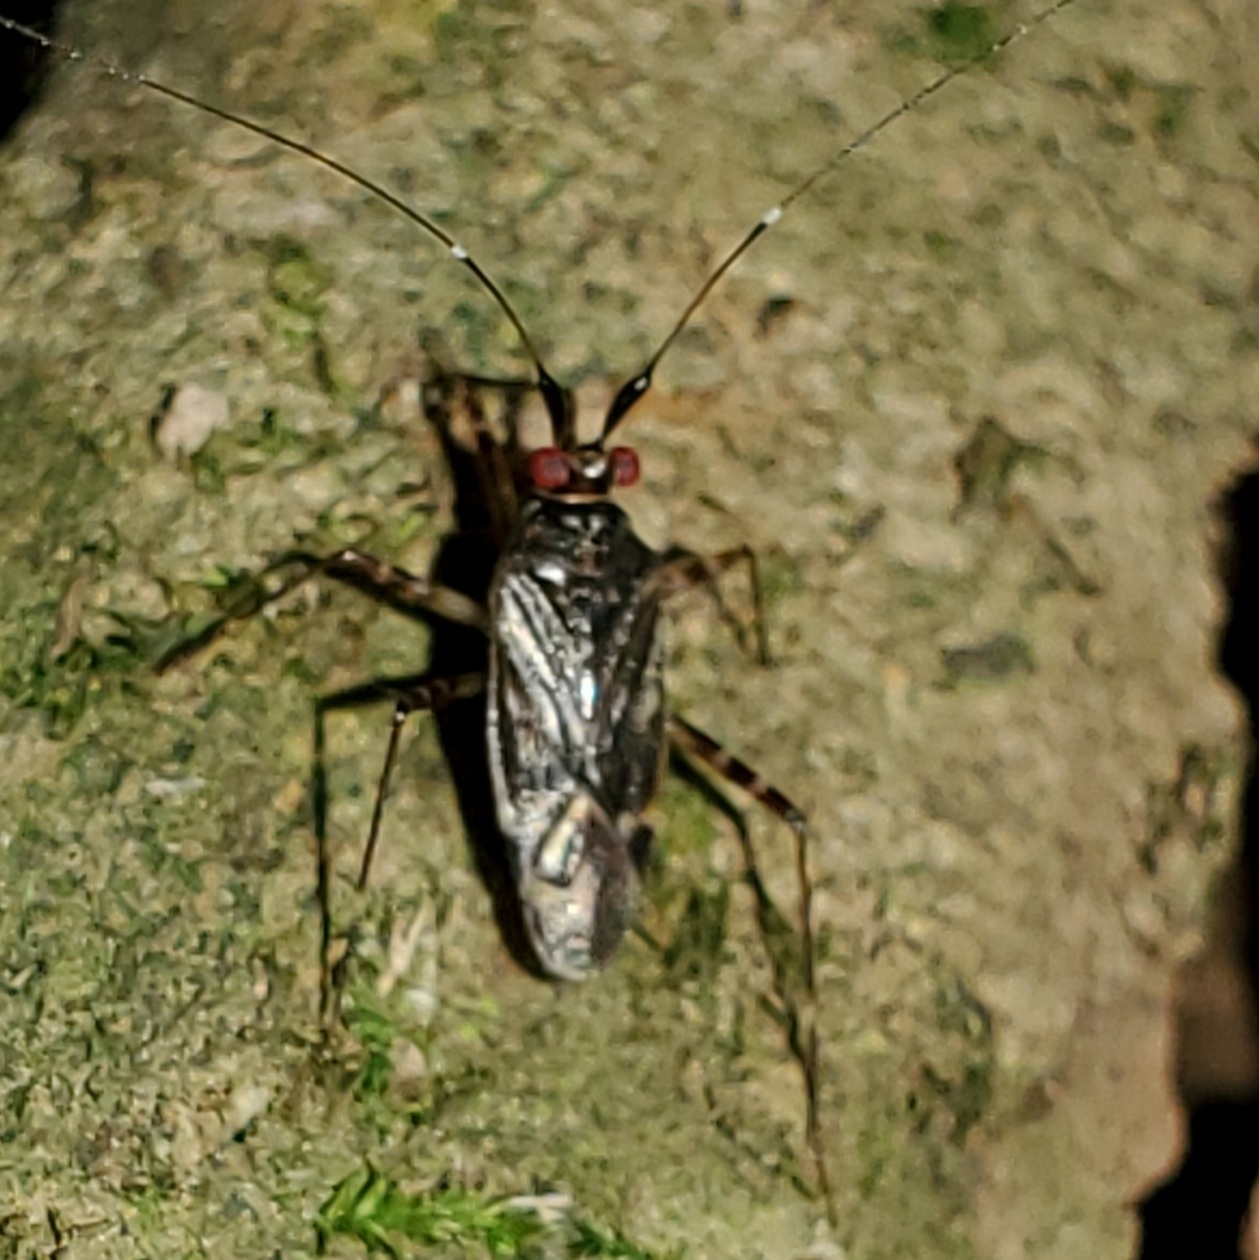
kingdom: Animalia
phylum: Arthropoda
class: Insecta
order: Hemiptera
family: Miridae
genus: Cylapus
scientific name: Cylapus tenuicornis
